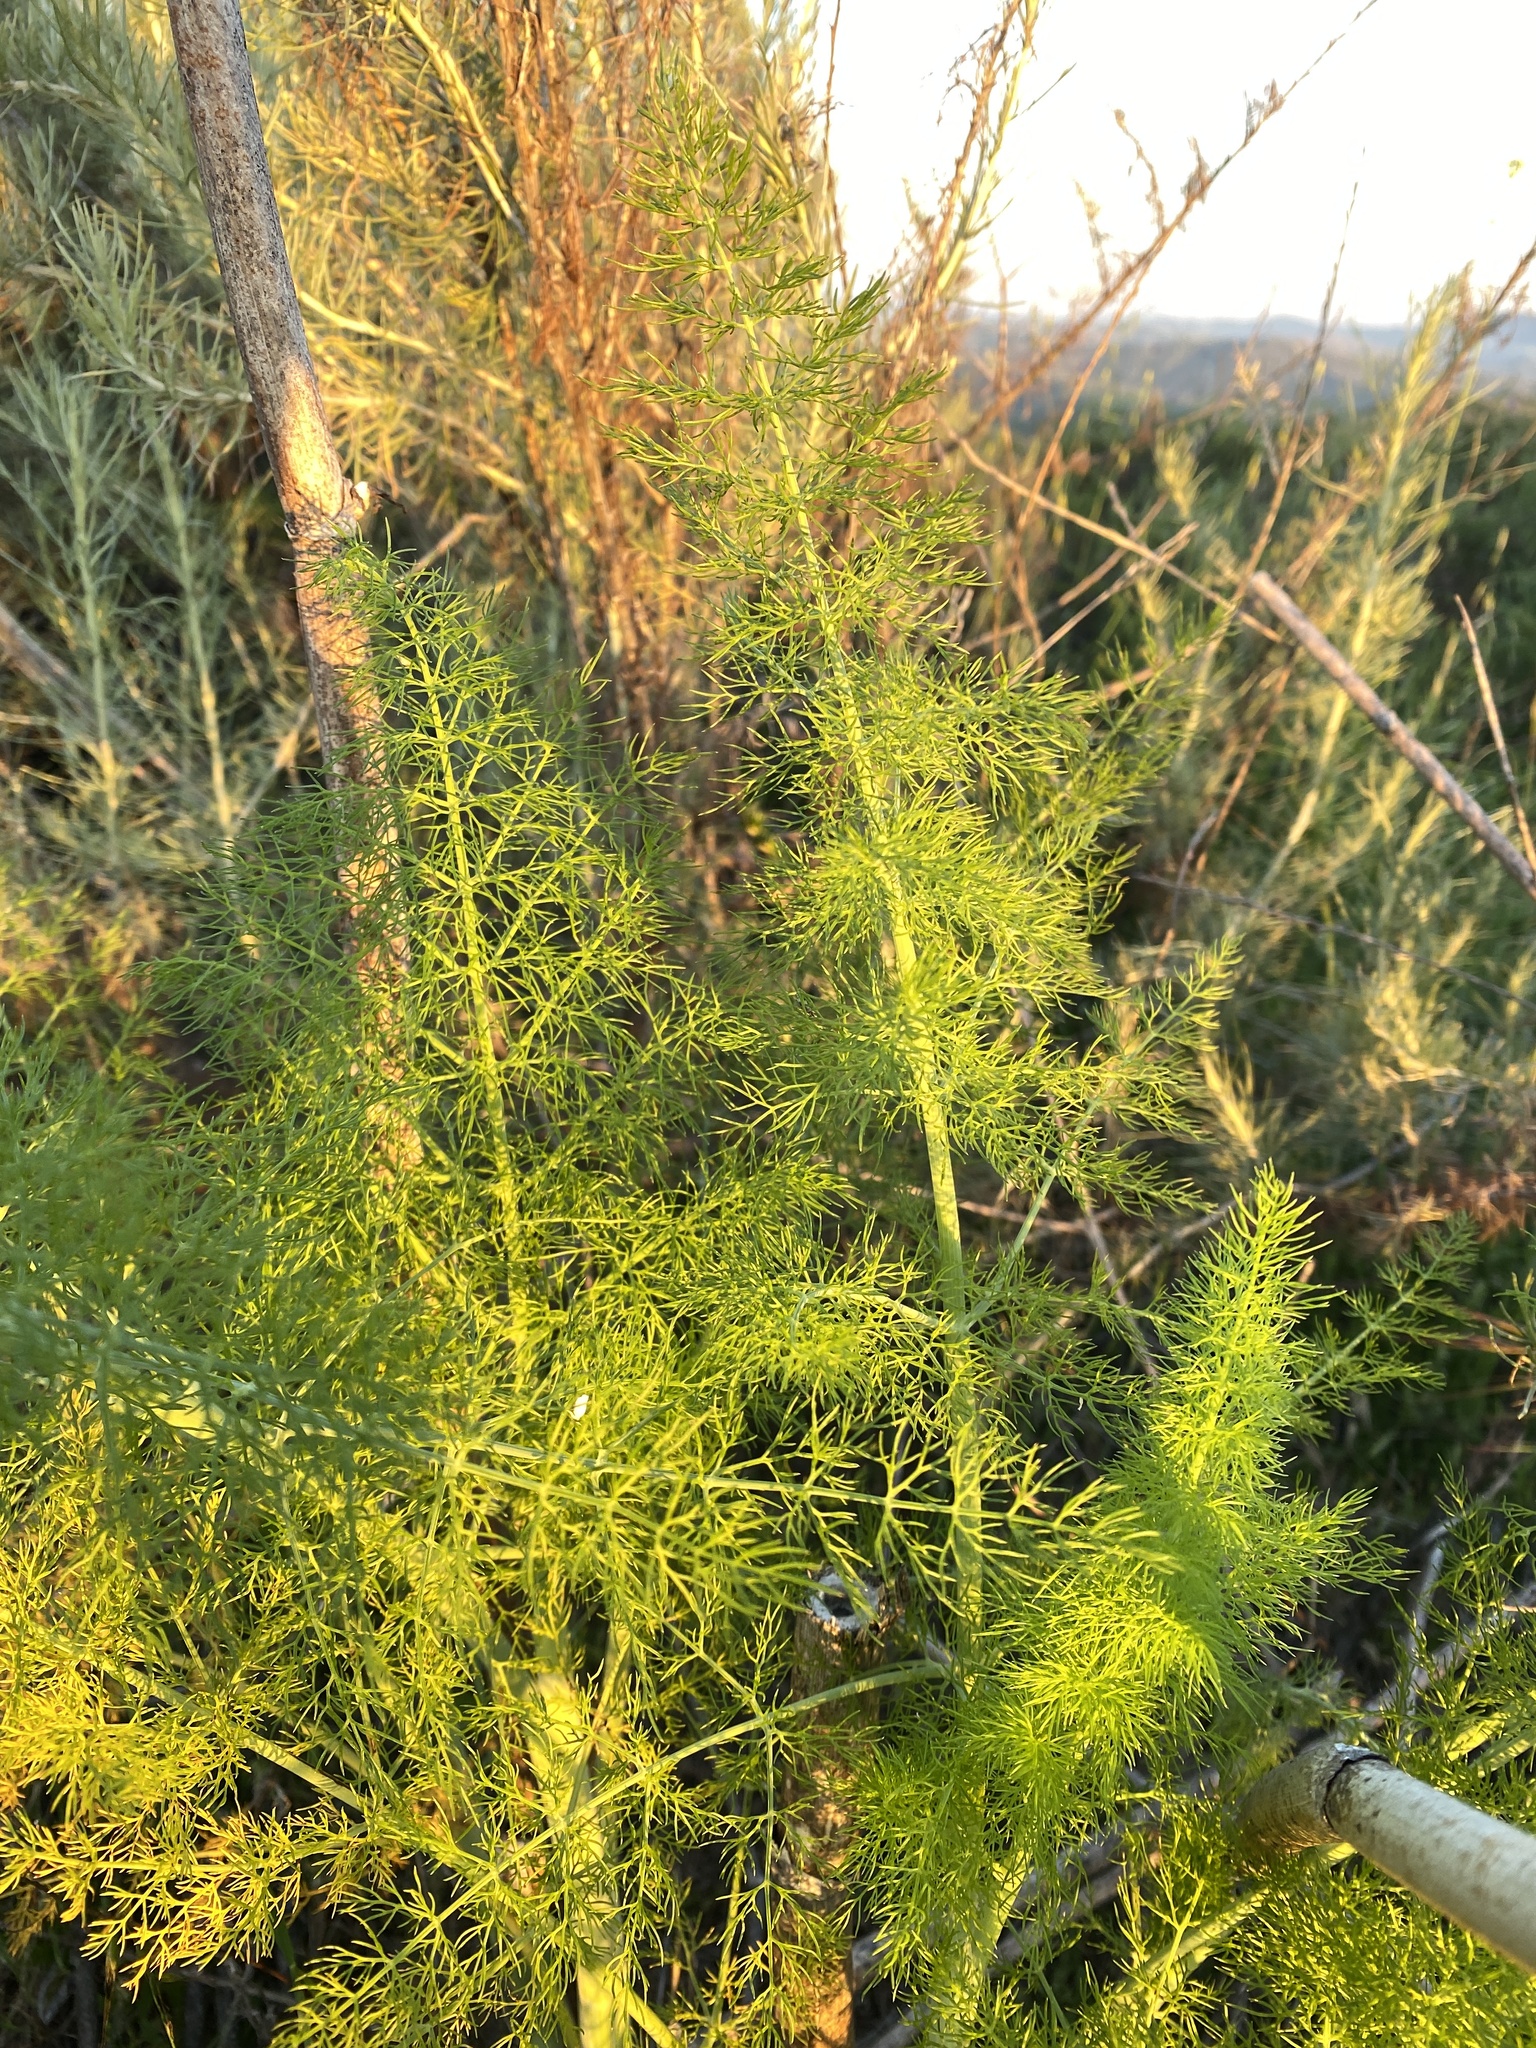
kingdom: Plantae
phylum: Tracheophyta
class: Magnoliopsida
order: Apiales
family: Apiaceae
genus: Foeniculum
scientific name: Foeniculum vulgare
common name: Fennel
